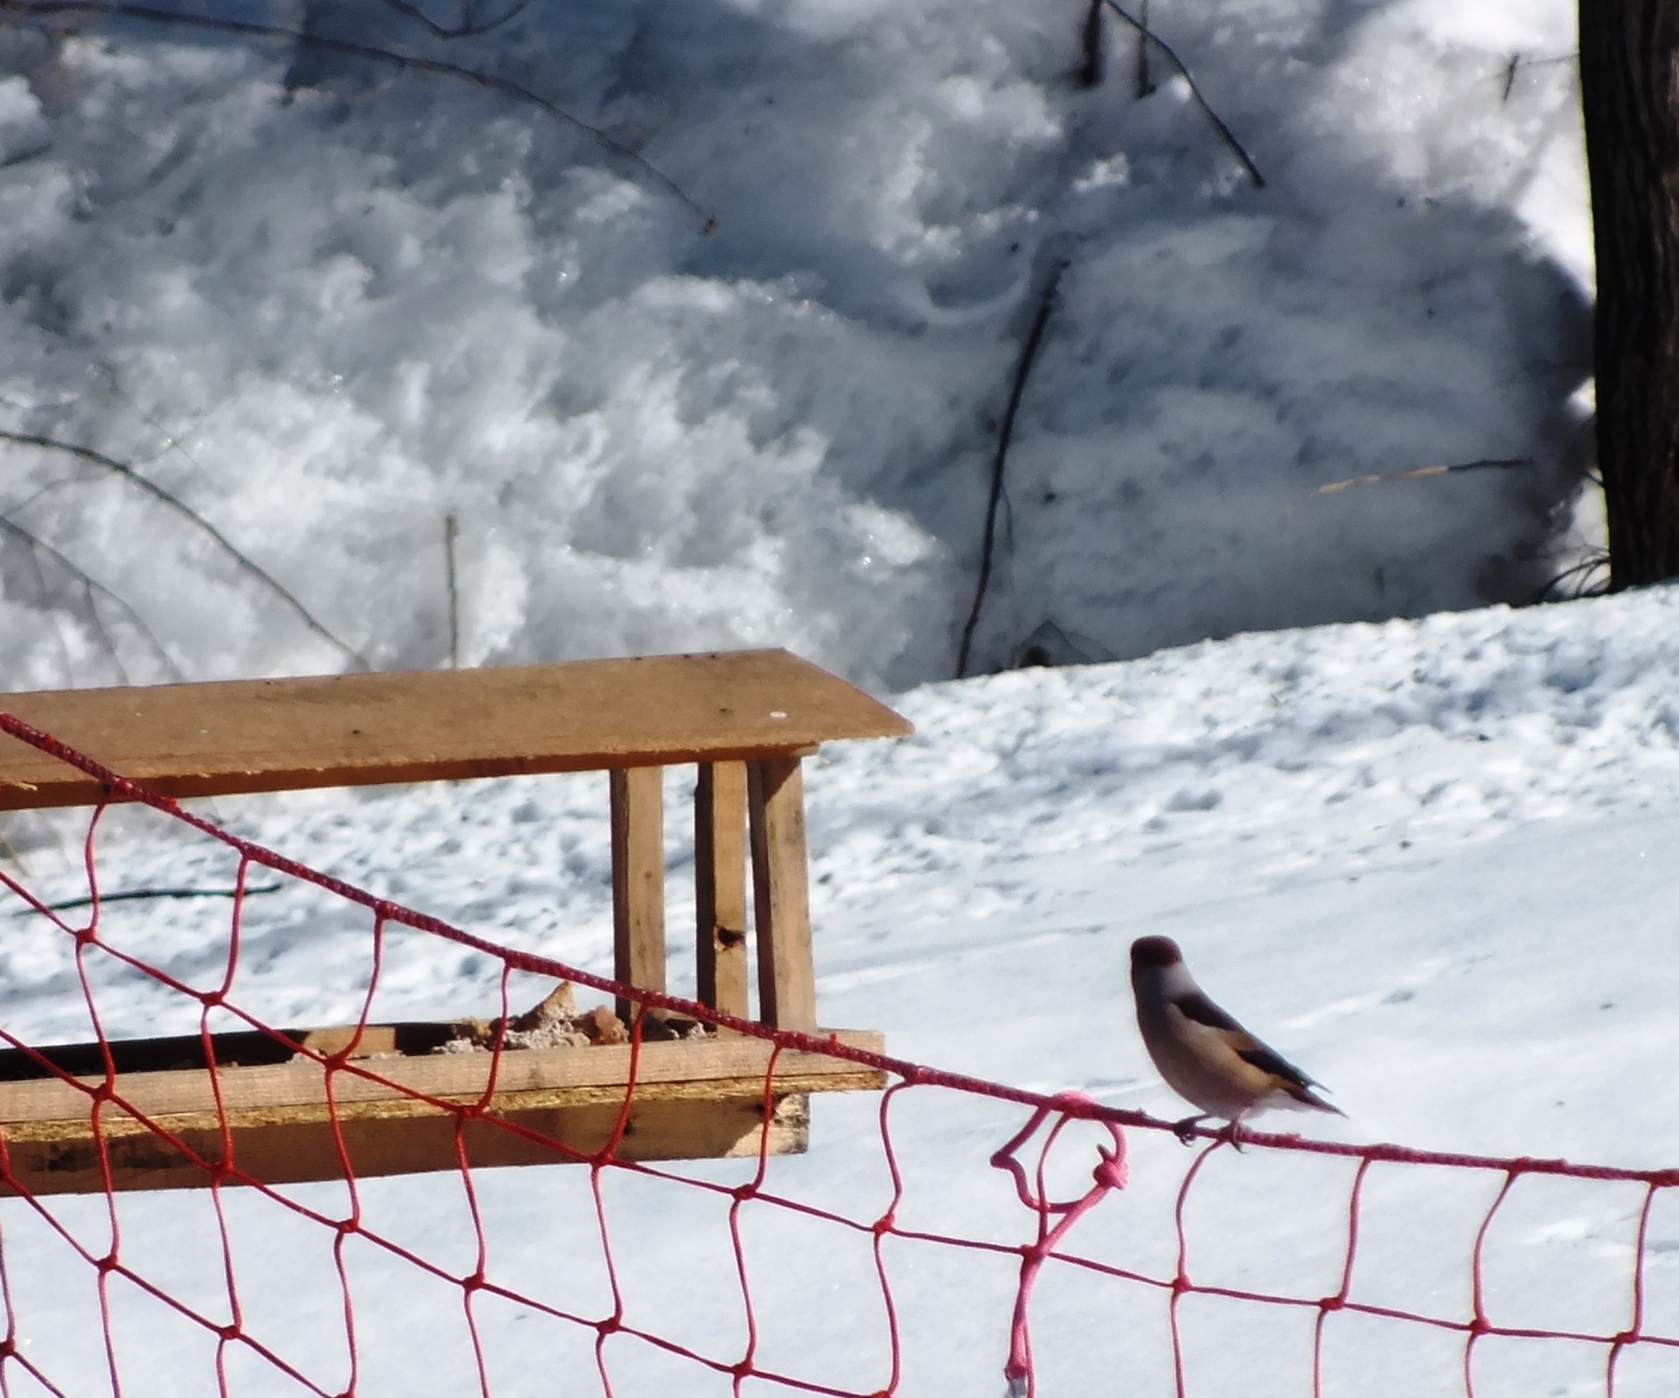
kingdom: Animalia
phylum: Chordata
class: Aves
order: Passeriformes
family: Fringillidae
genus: Coccothraustes
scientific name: Coccothraustes coccothraustes
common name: Hawfinch
